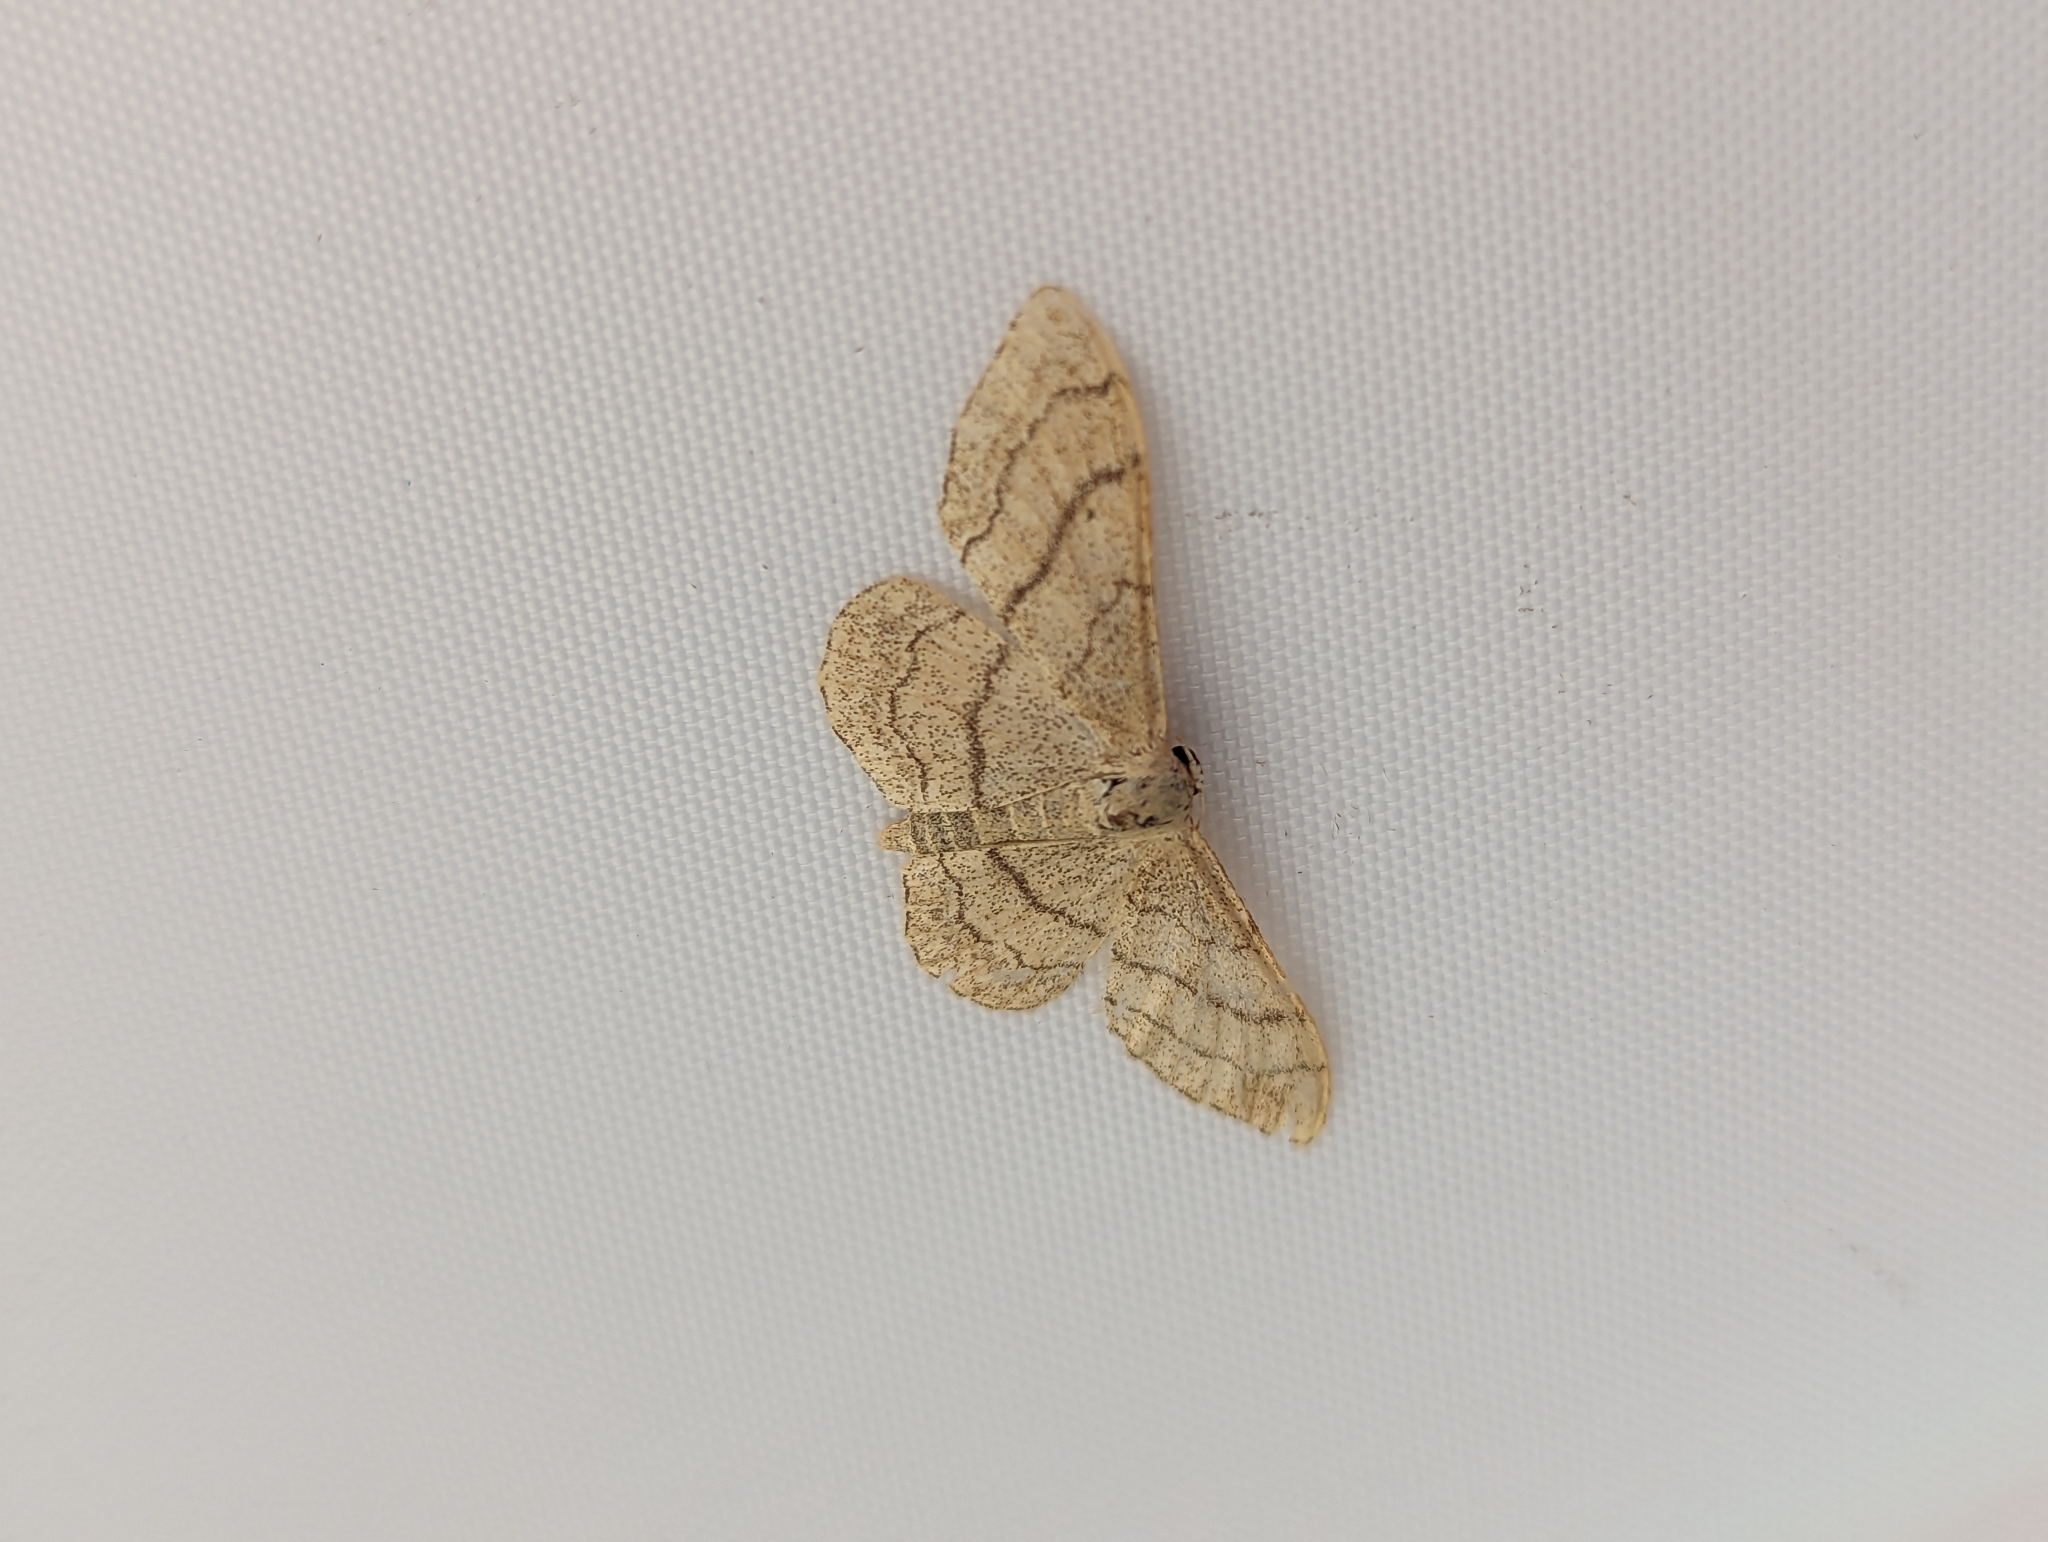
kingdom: Animalia
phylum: Arthropoda
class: Insecta
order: Lepidoptera
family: Geometridae
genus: Idaea
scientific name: Idaea aversata
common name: Riband wave
